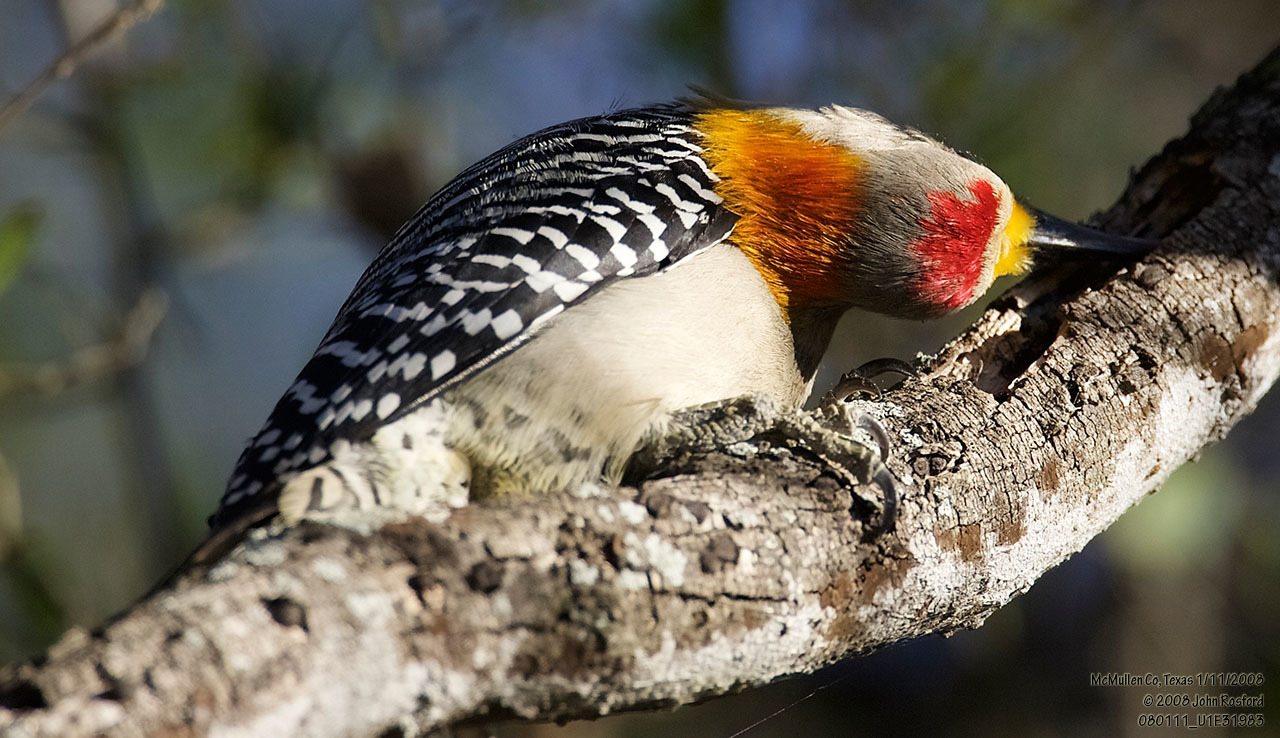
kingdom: Animalia
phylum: Chordata
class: Aves
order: Piciformes
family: Picidae
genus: Melanerpes
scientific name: Melanerpes aurifrons
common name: Golden-fronted woodpecker
